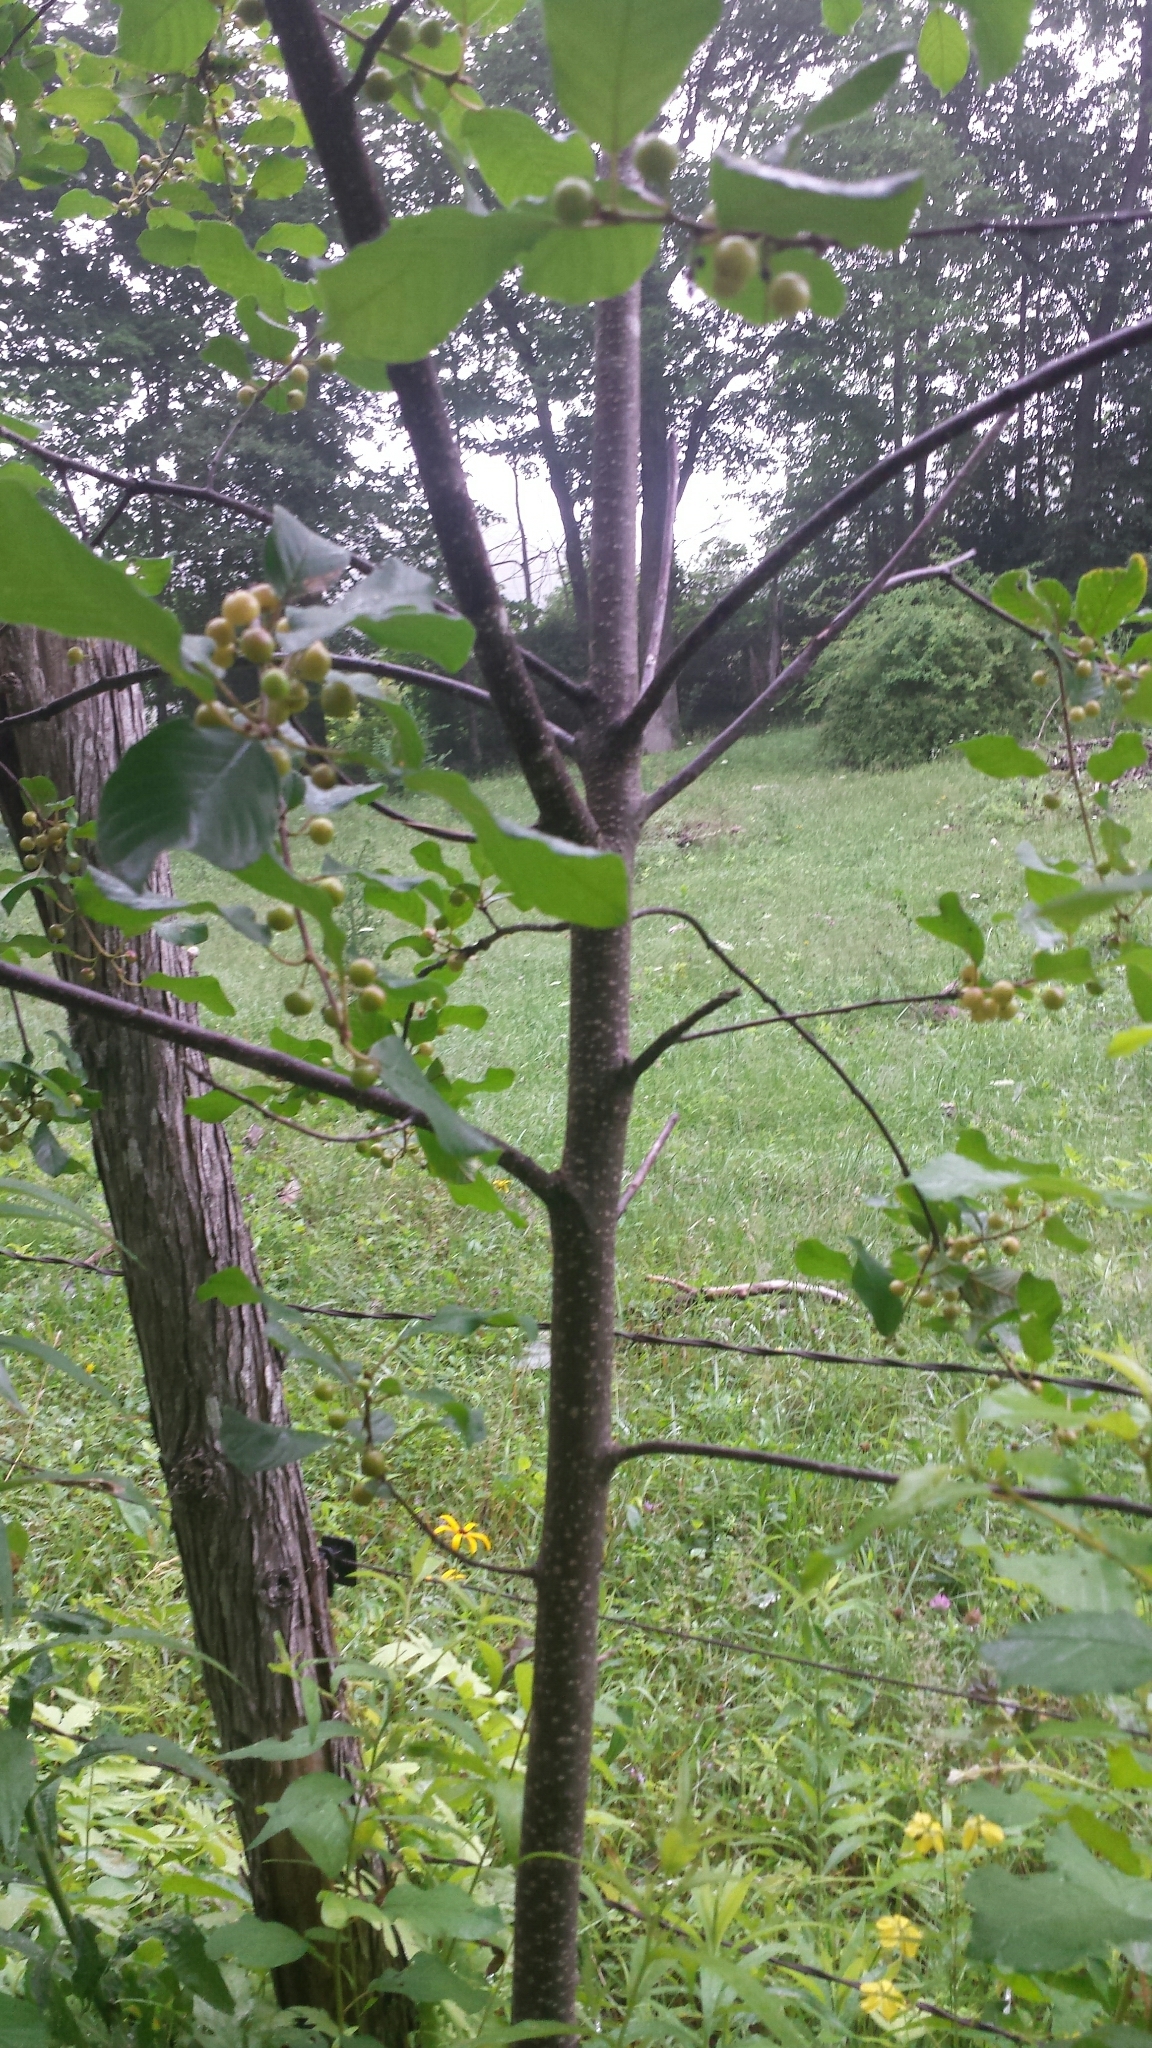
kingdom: Plantae
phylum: Tracheophyta
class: Magnoliopsida
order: Rosales
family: Rhamnaceae
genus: Frangula
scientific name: Frangula alnus
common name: Alder buckthorn
